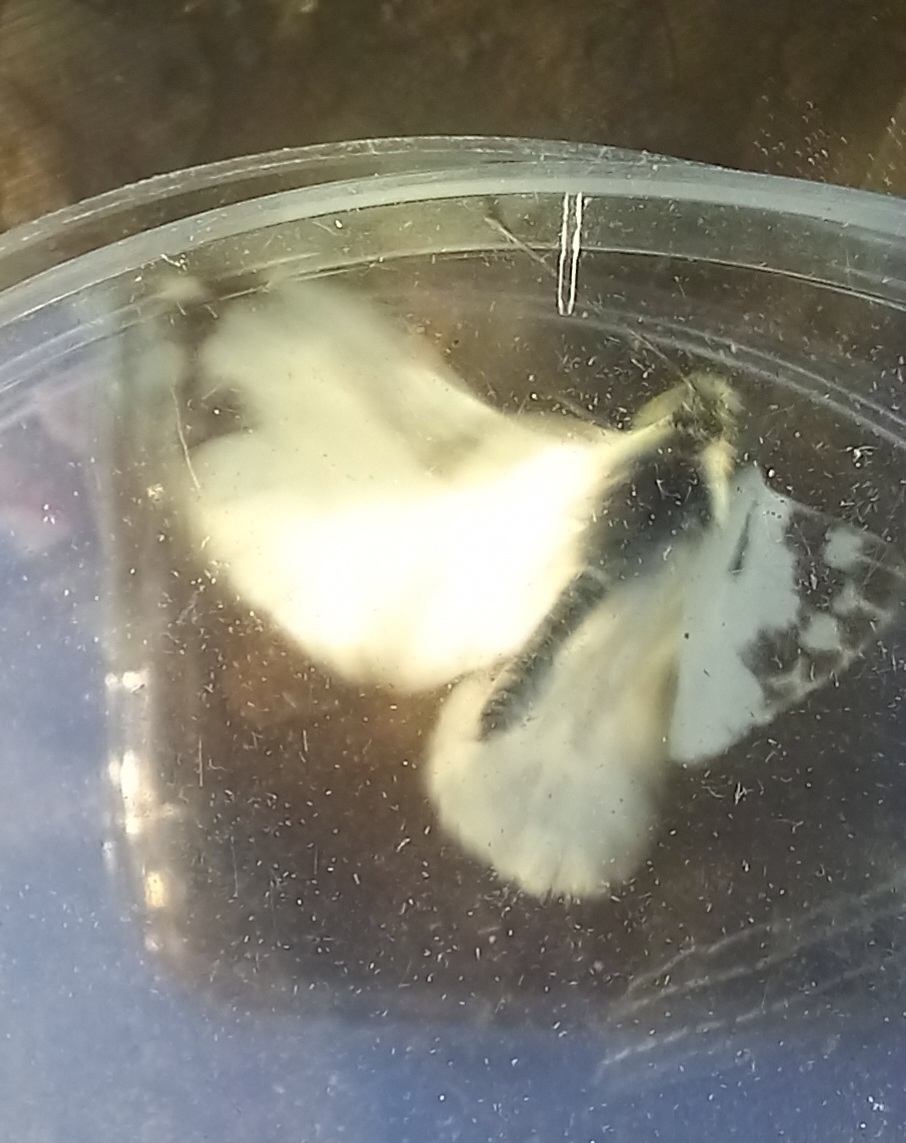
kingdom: Animalia
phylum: Arthropoda
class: Insecta
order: Lepidoptera
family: Pieridae
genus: Pontia
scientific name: Pontia daplidice
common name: Bath white
